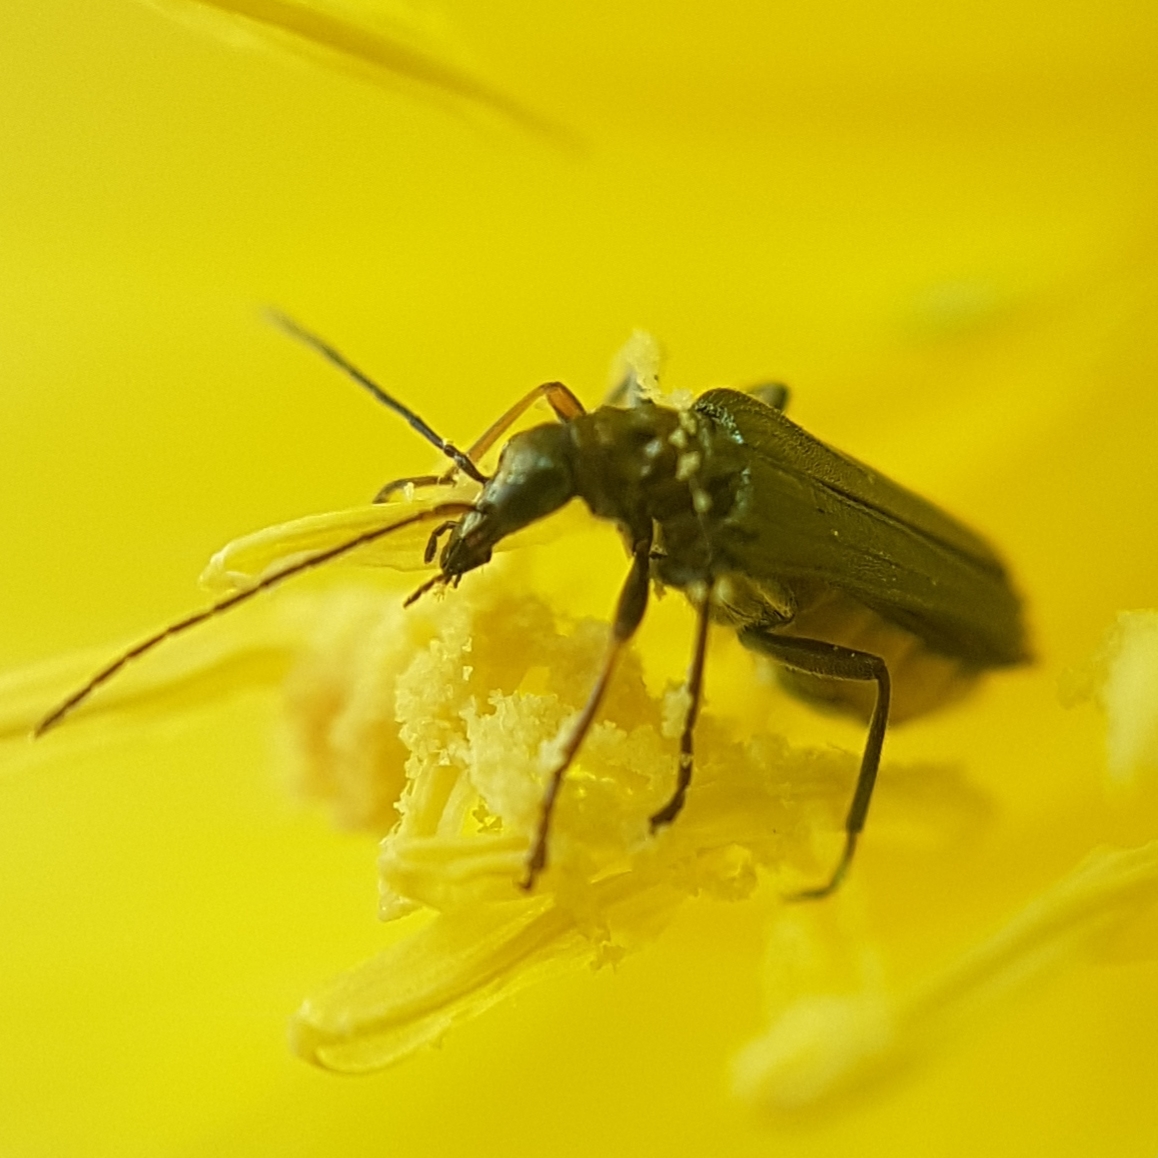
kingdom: Animalia
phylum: Arthropoda
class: Insecta
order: Coleoptera
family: Oedemeridae
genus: Oedemera
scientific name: Oedemera flavipes
